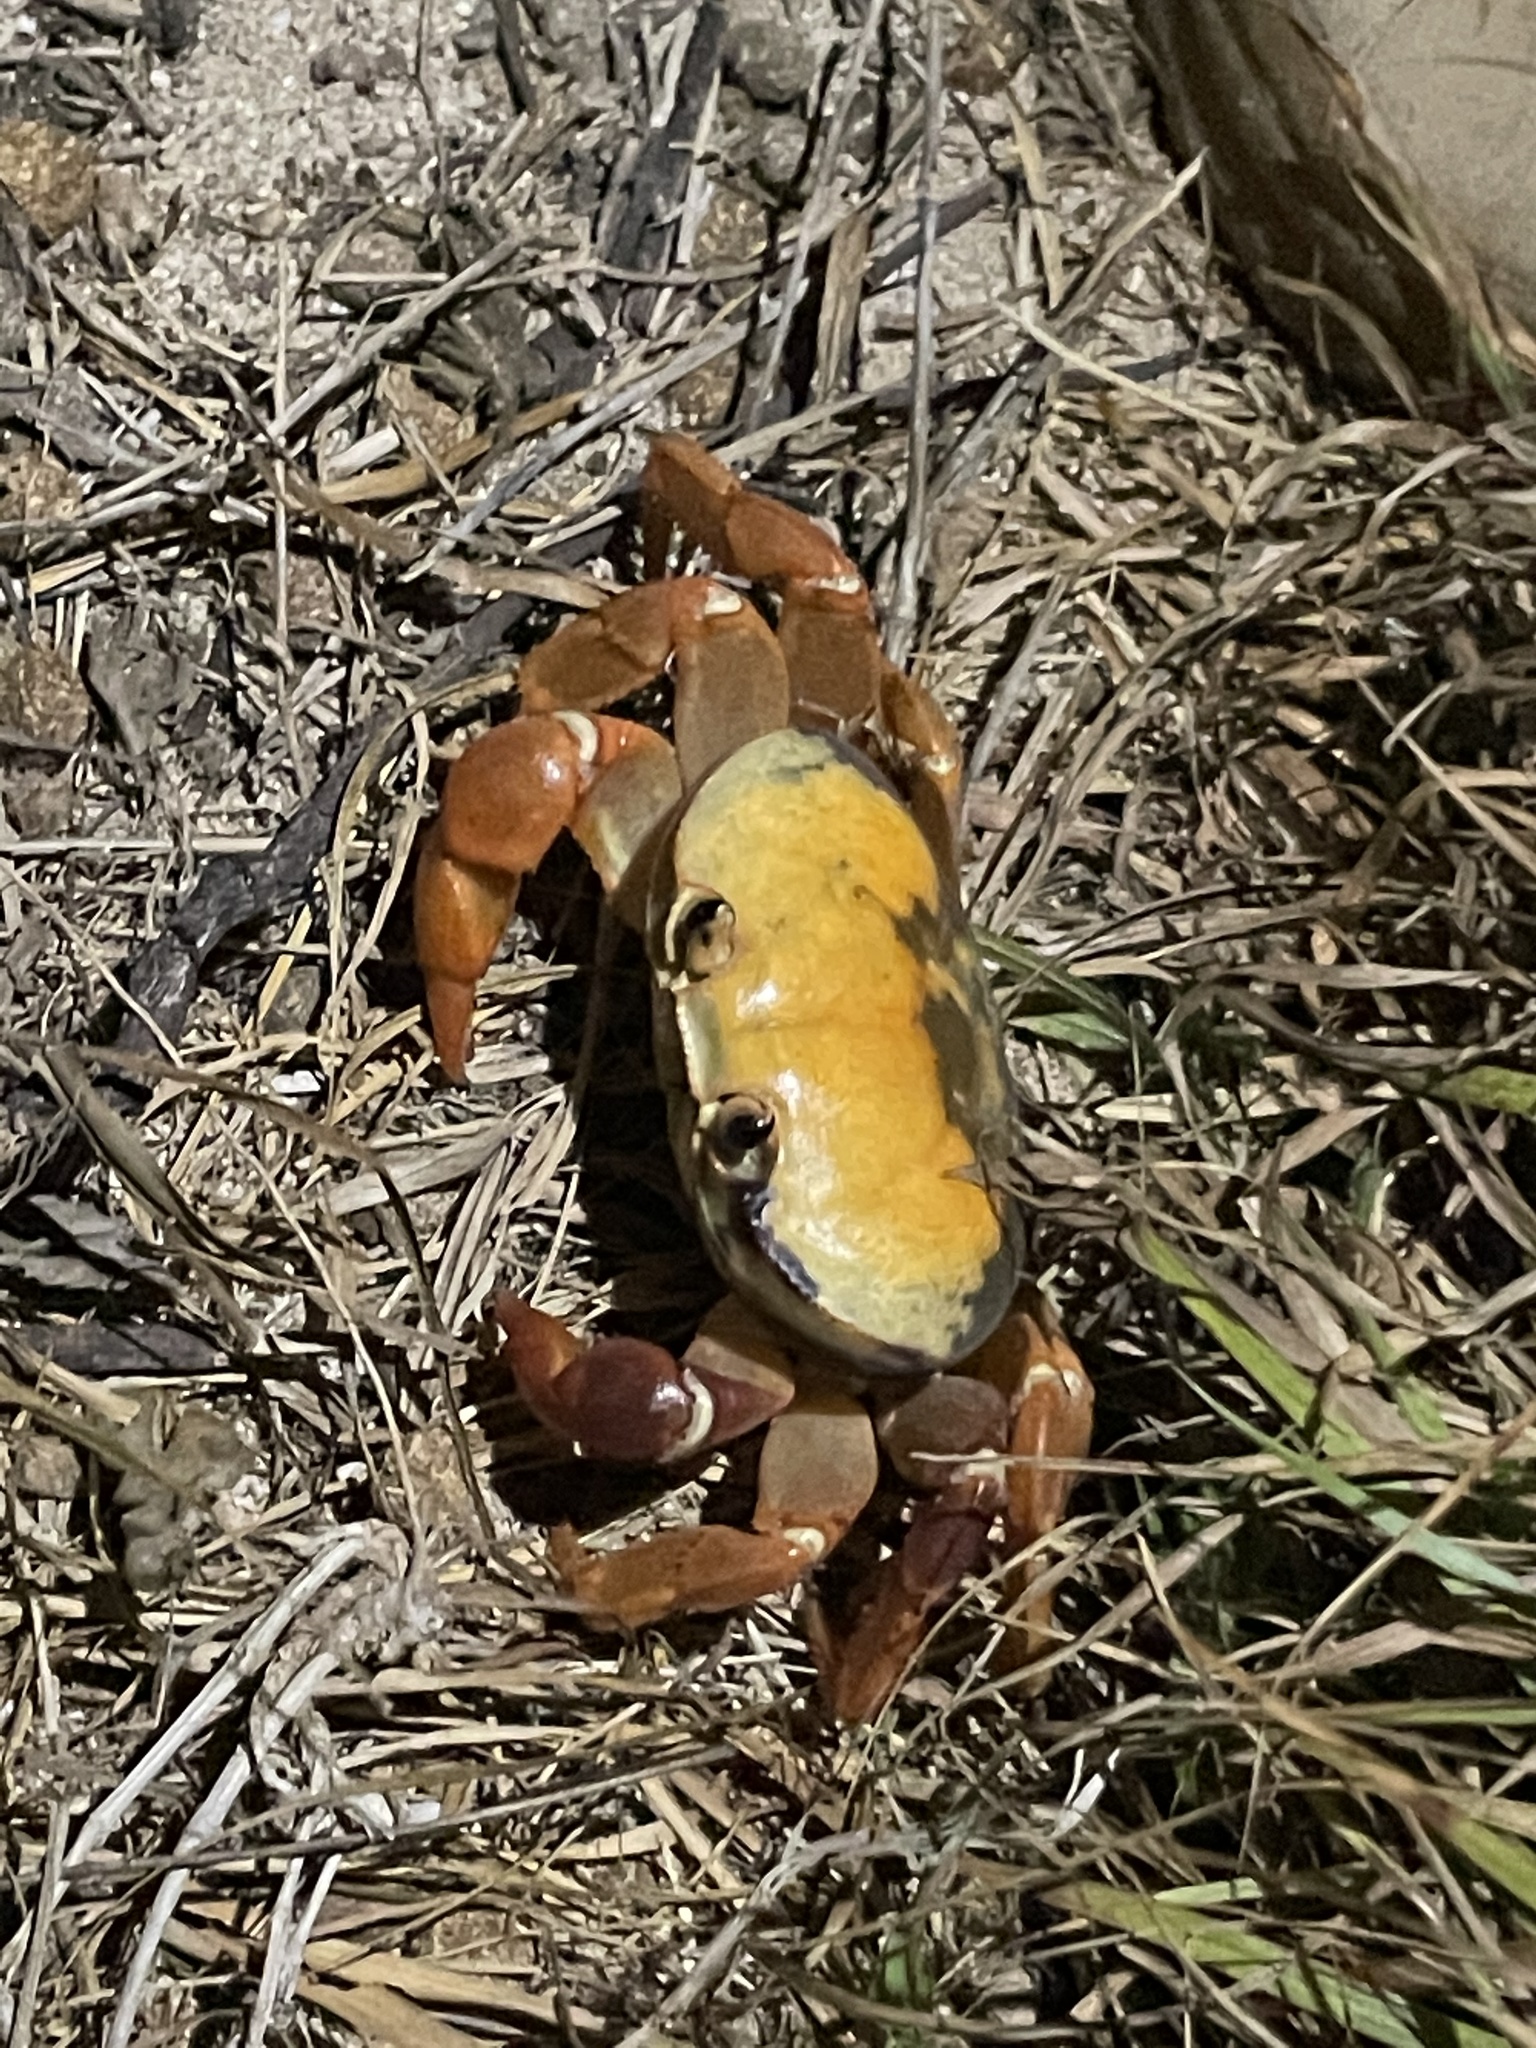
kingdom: Animalia
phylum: Arthropoda
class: Malacostraca
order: Decapoda
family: Gecarcinidae
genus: Johngarthia
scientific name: Johngarthia oceanica
